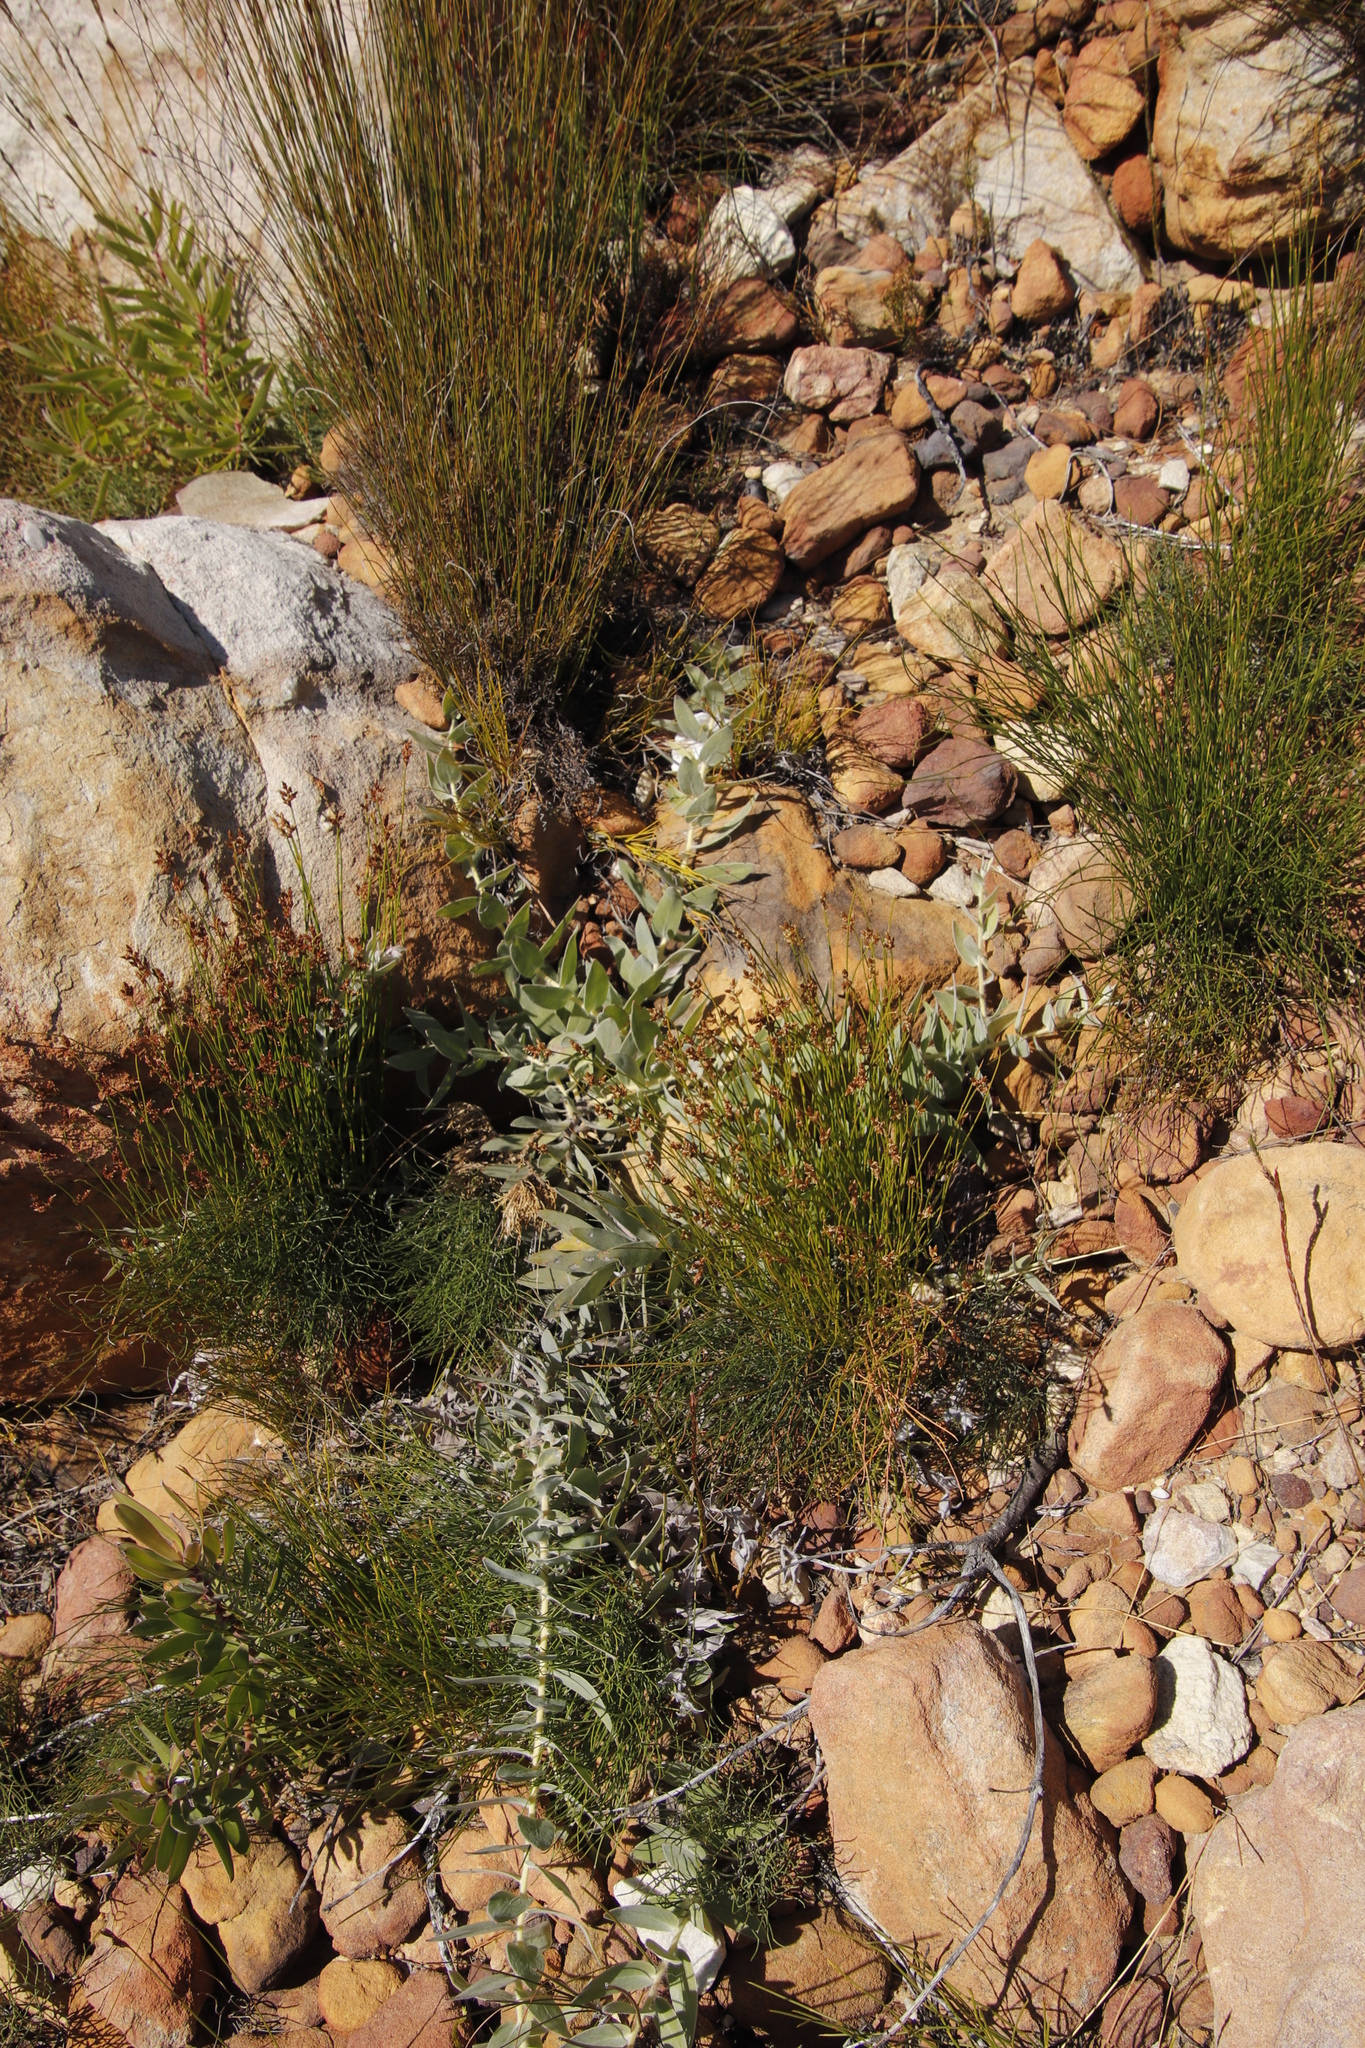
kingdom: Plantae
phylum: Tracheophyta
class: Magnoliopsida
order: Proteales
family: Proteaceae
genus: Leucospermum
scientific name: Leucospermum cordatum
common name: Heart-leaf pincushion
